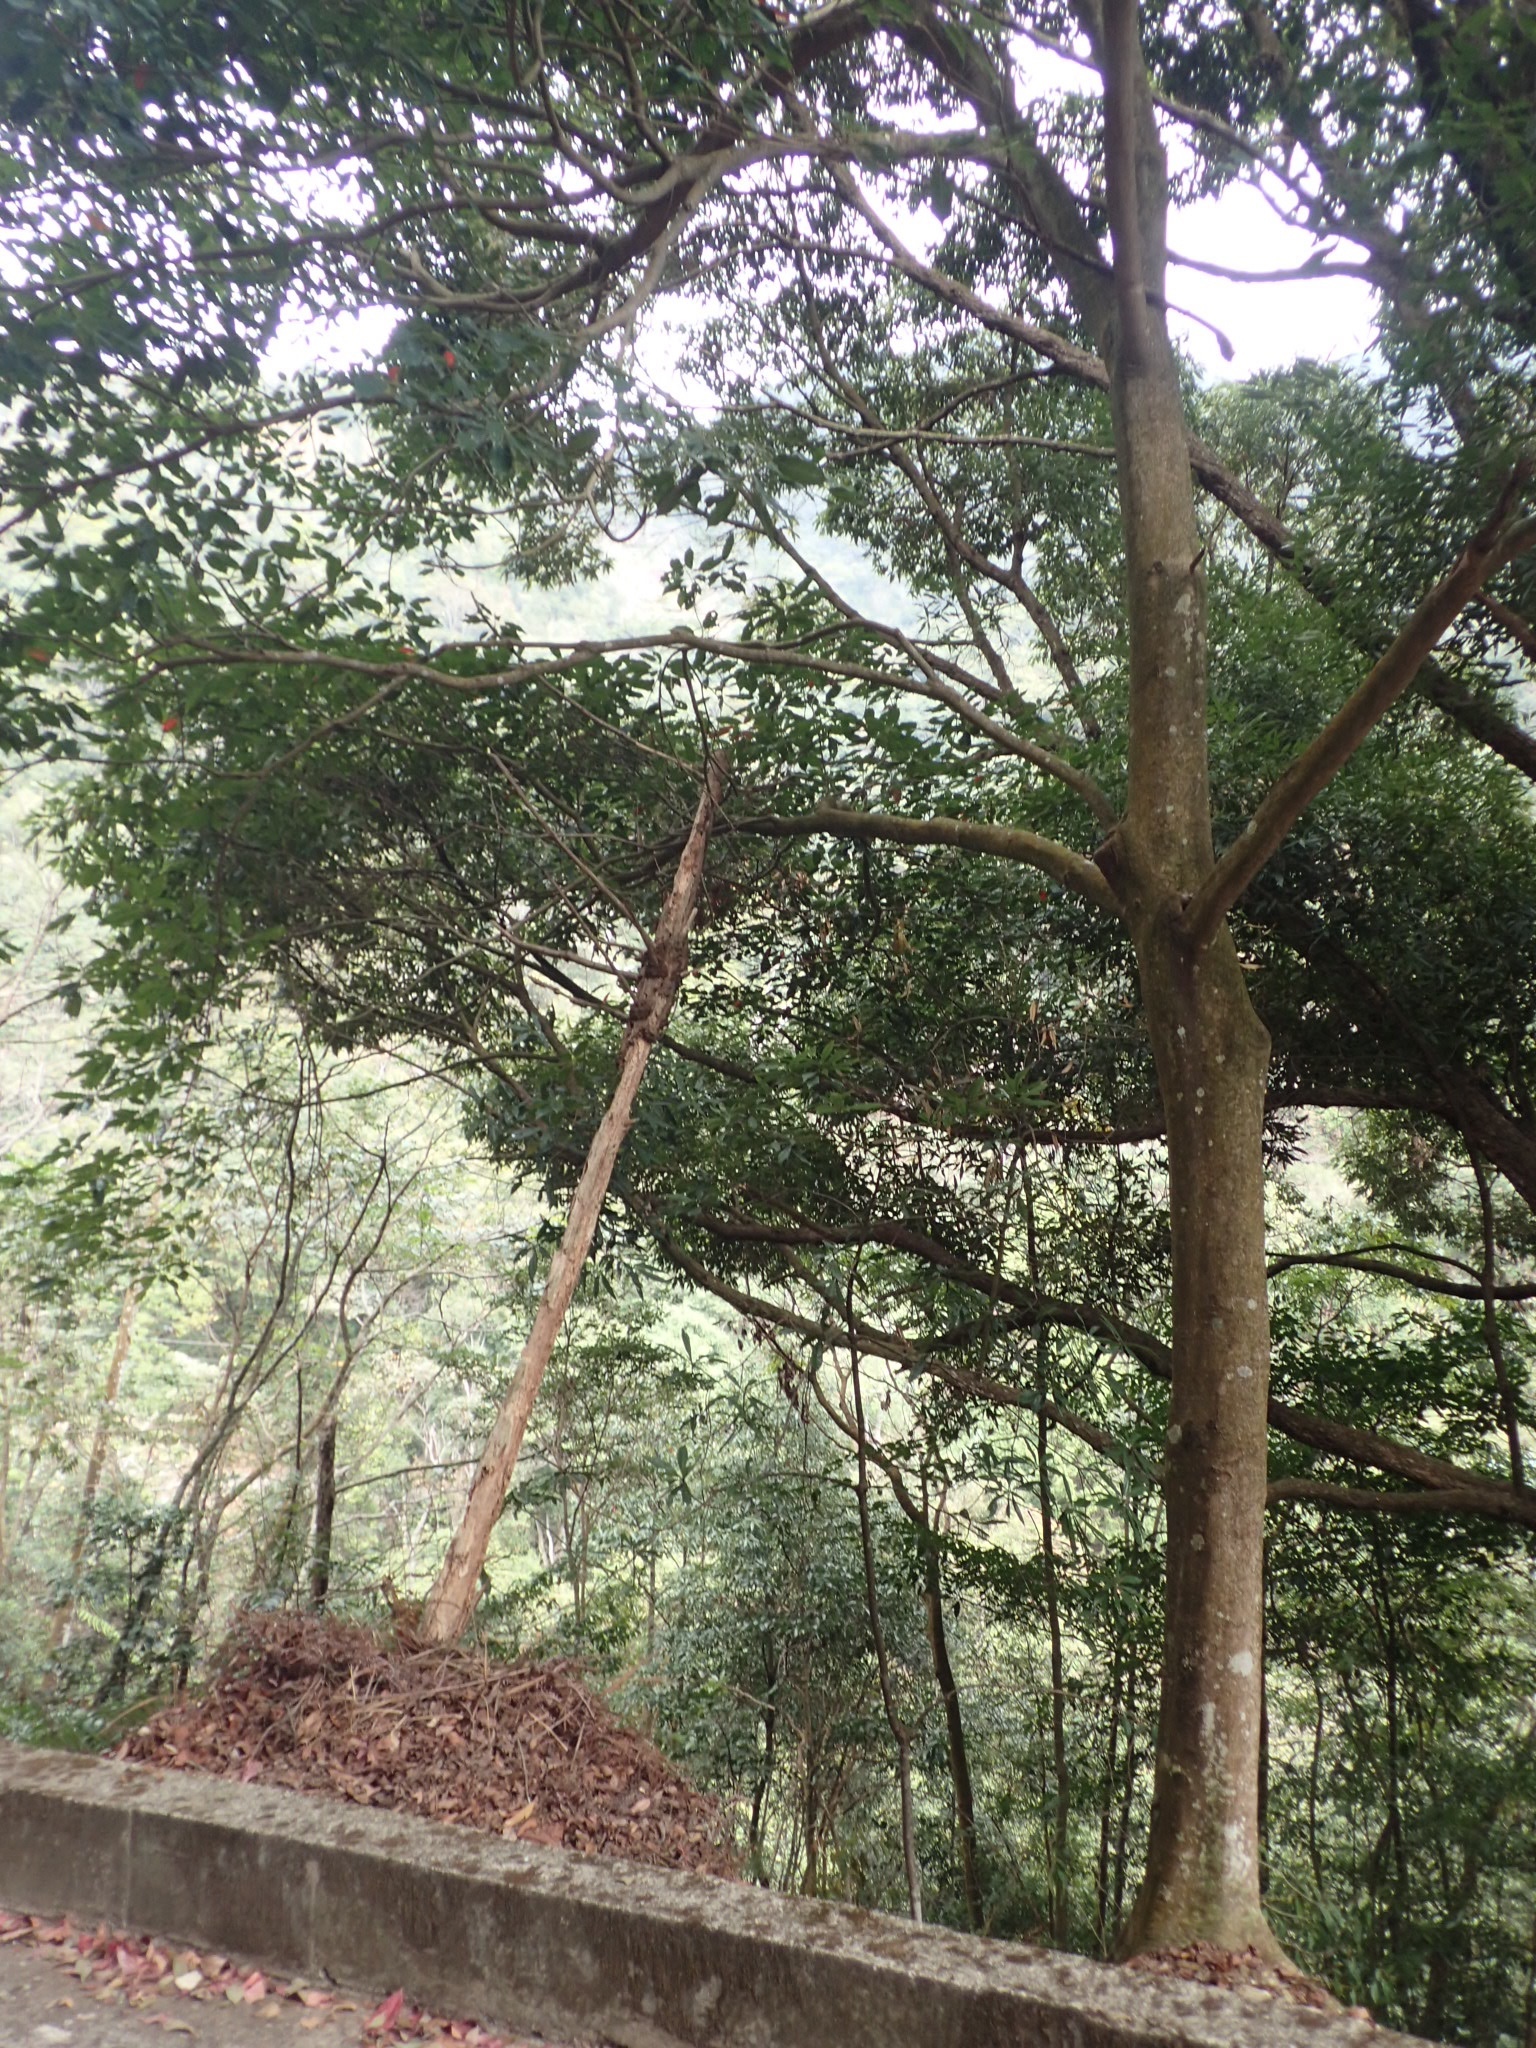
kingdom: Plantae
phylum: Tracheophyta
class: Magnoliopsida
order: Oxalidales
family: Elaeocarpaceae
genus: Sloanea
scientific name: Sloanea dasycarpa
